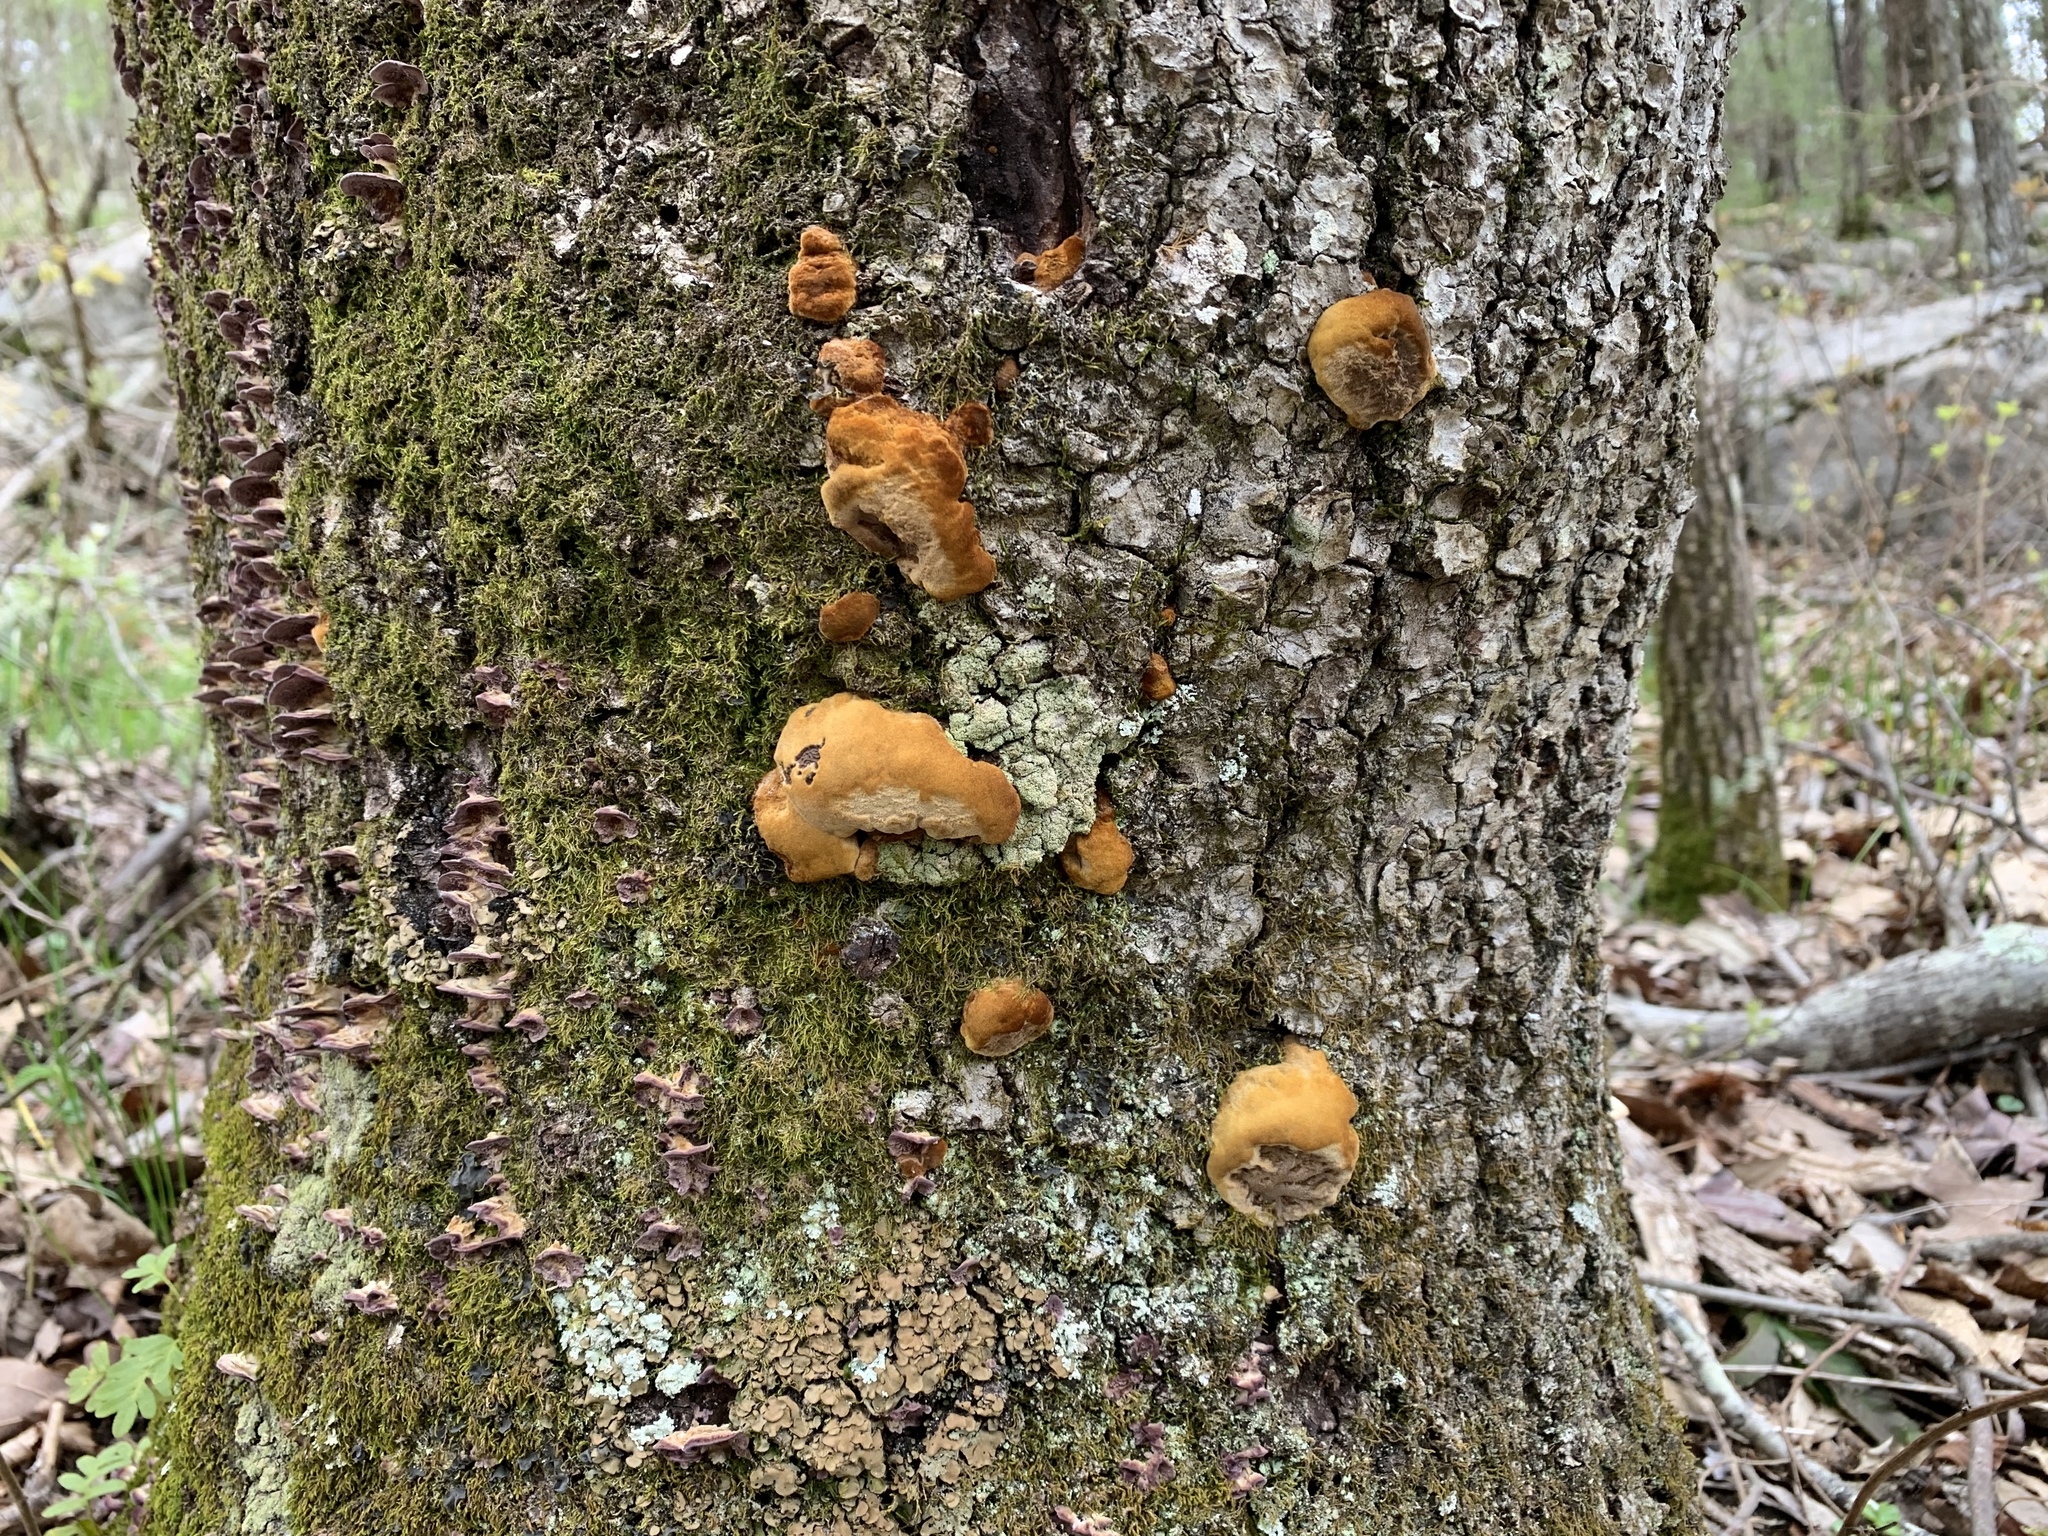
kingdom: Fungi
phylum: Basidiomycota
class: Agaricomycetes
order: Hymenochaetales
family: Hymenochaetaceae
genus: Phellinus
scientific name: Phellinus gilvus
